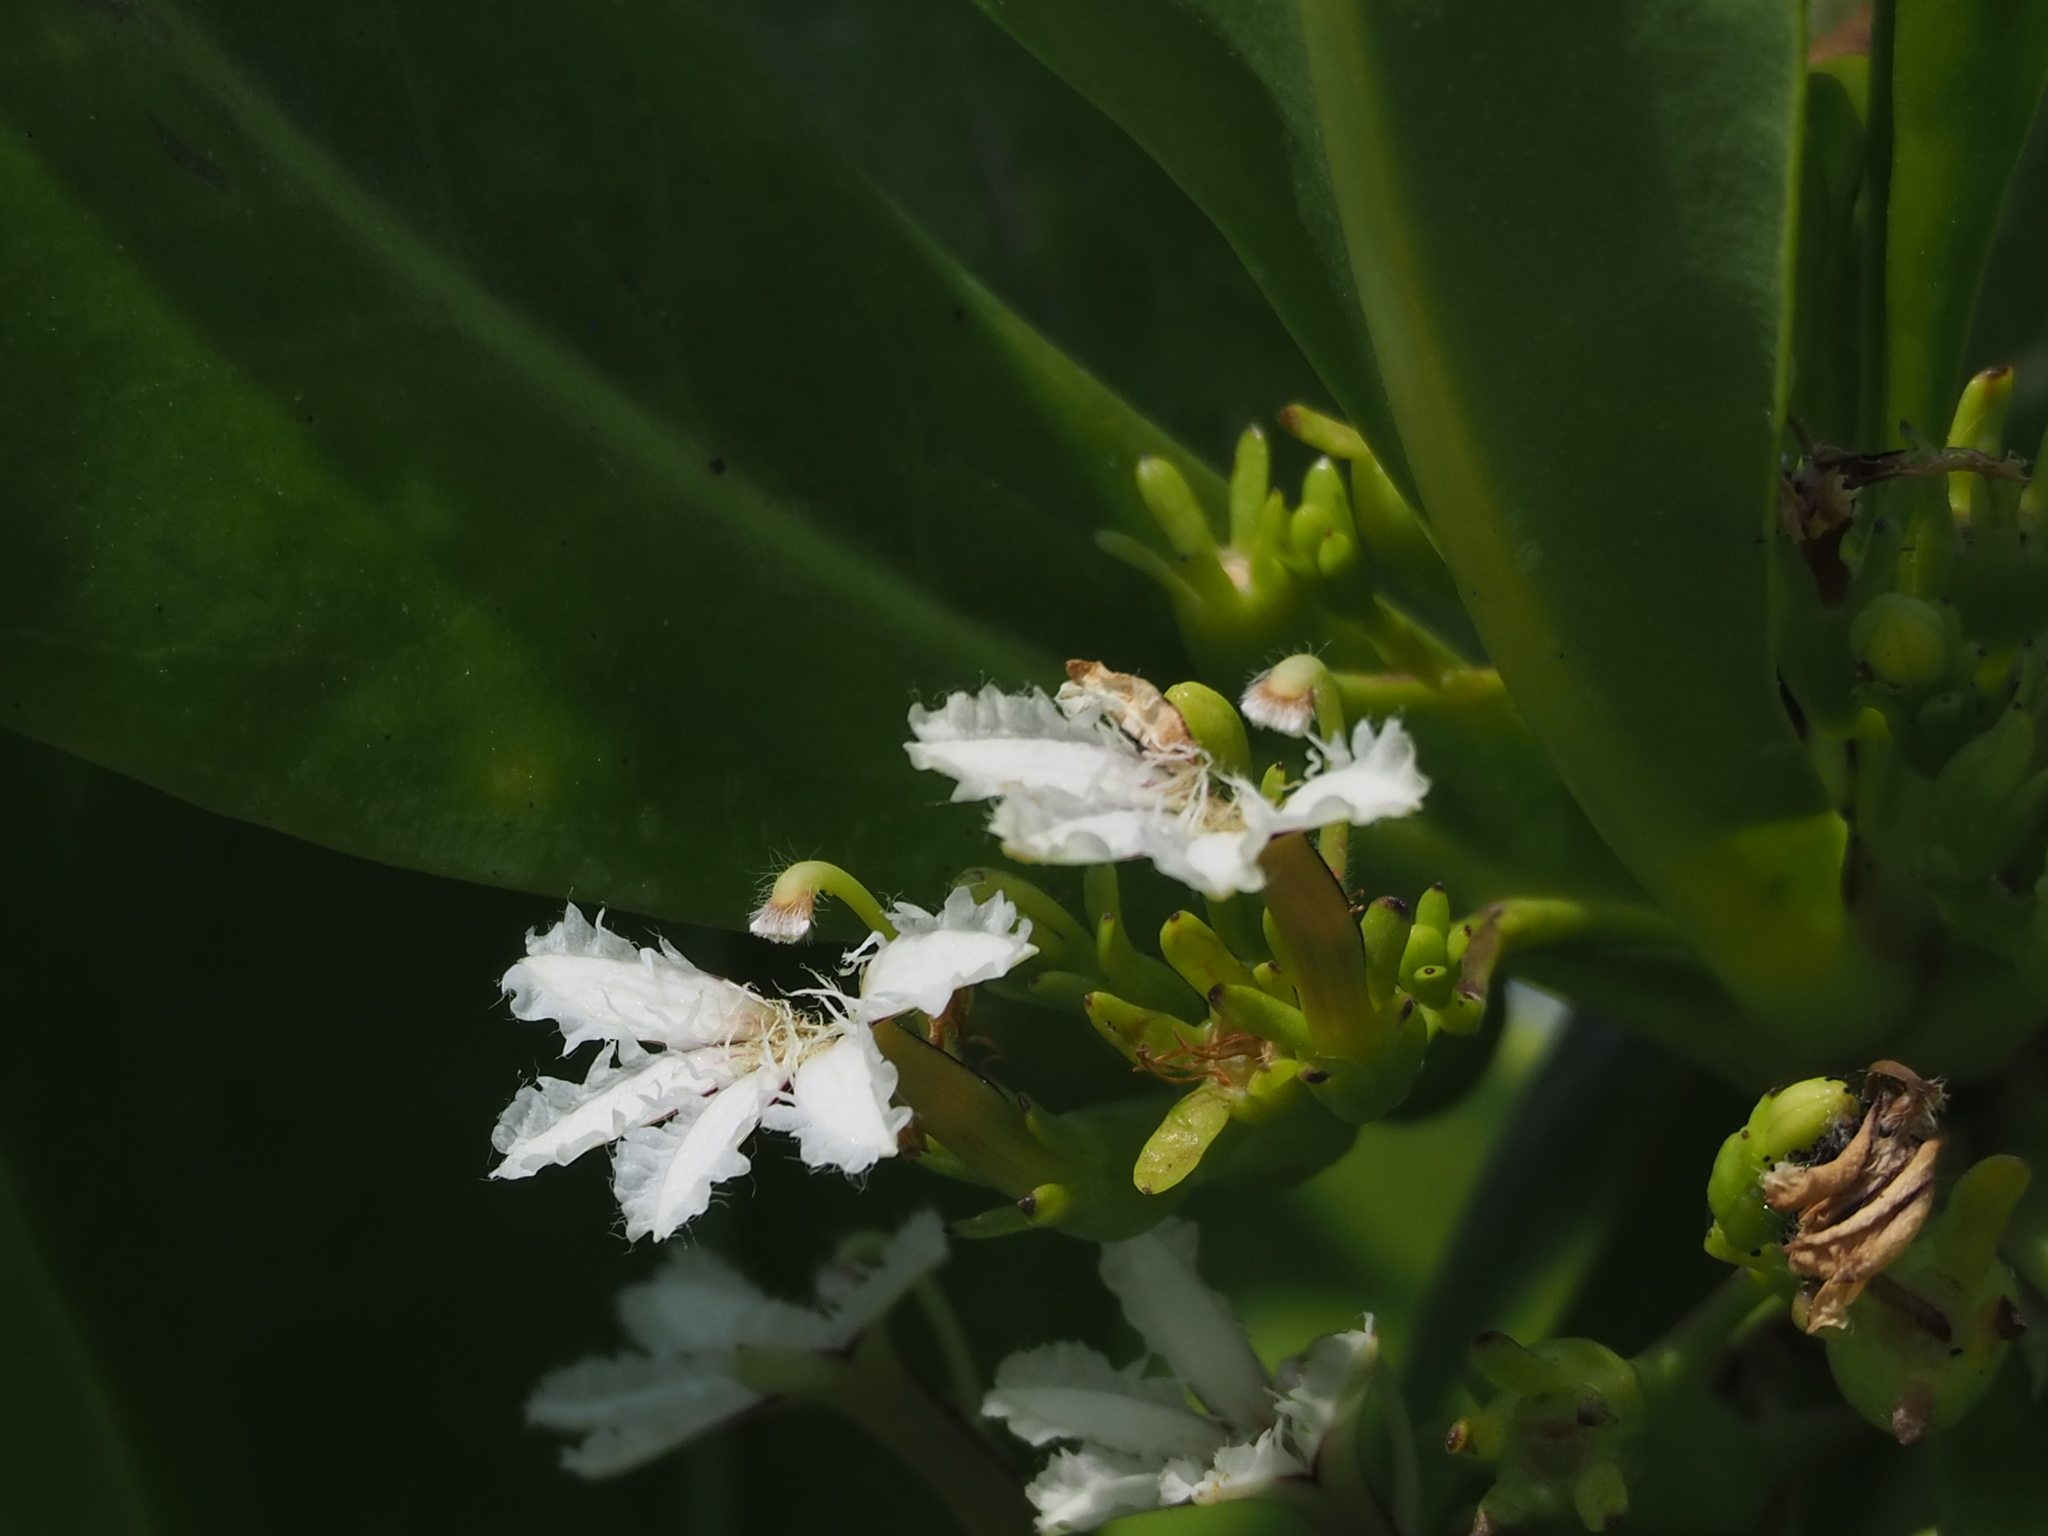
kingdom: Plantae
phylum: Tracheophyta
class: Magnoliopsida
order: Asterales
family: Goodeniaceae
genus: Scaevola
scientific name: Scaevola taccada
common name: Sea lettucetree
